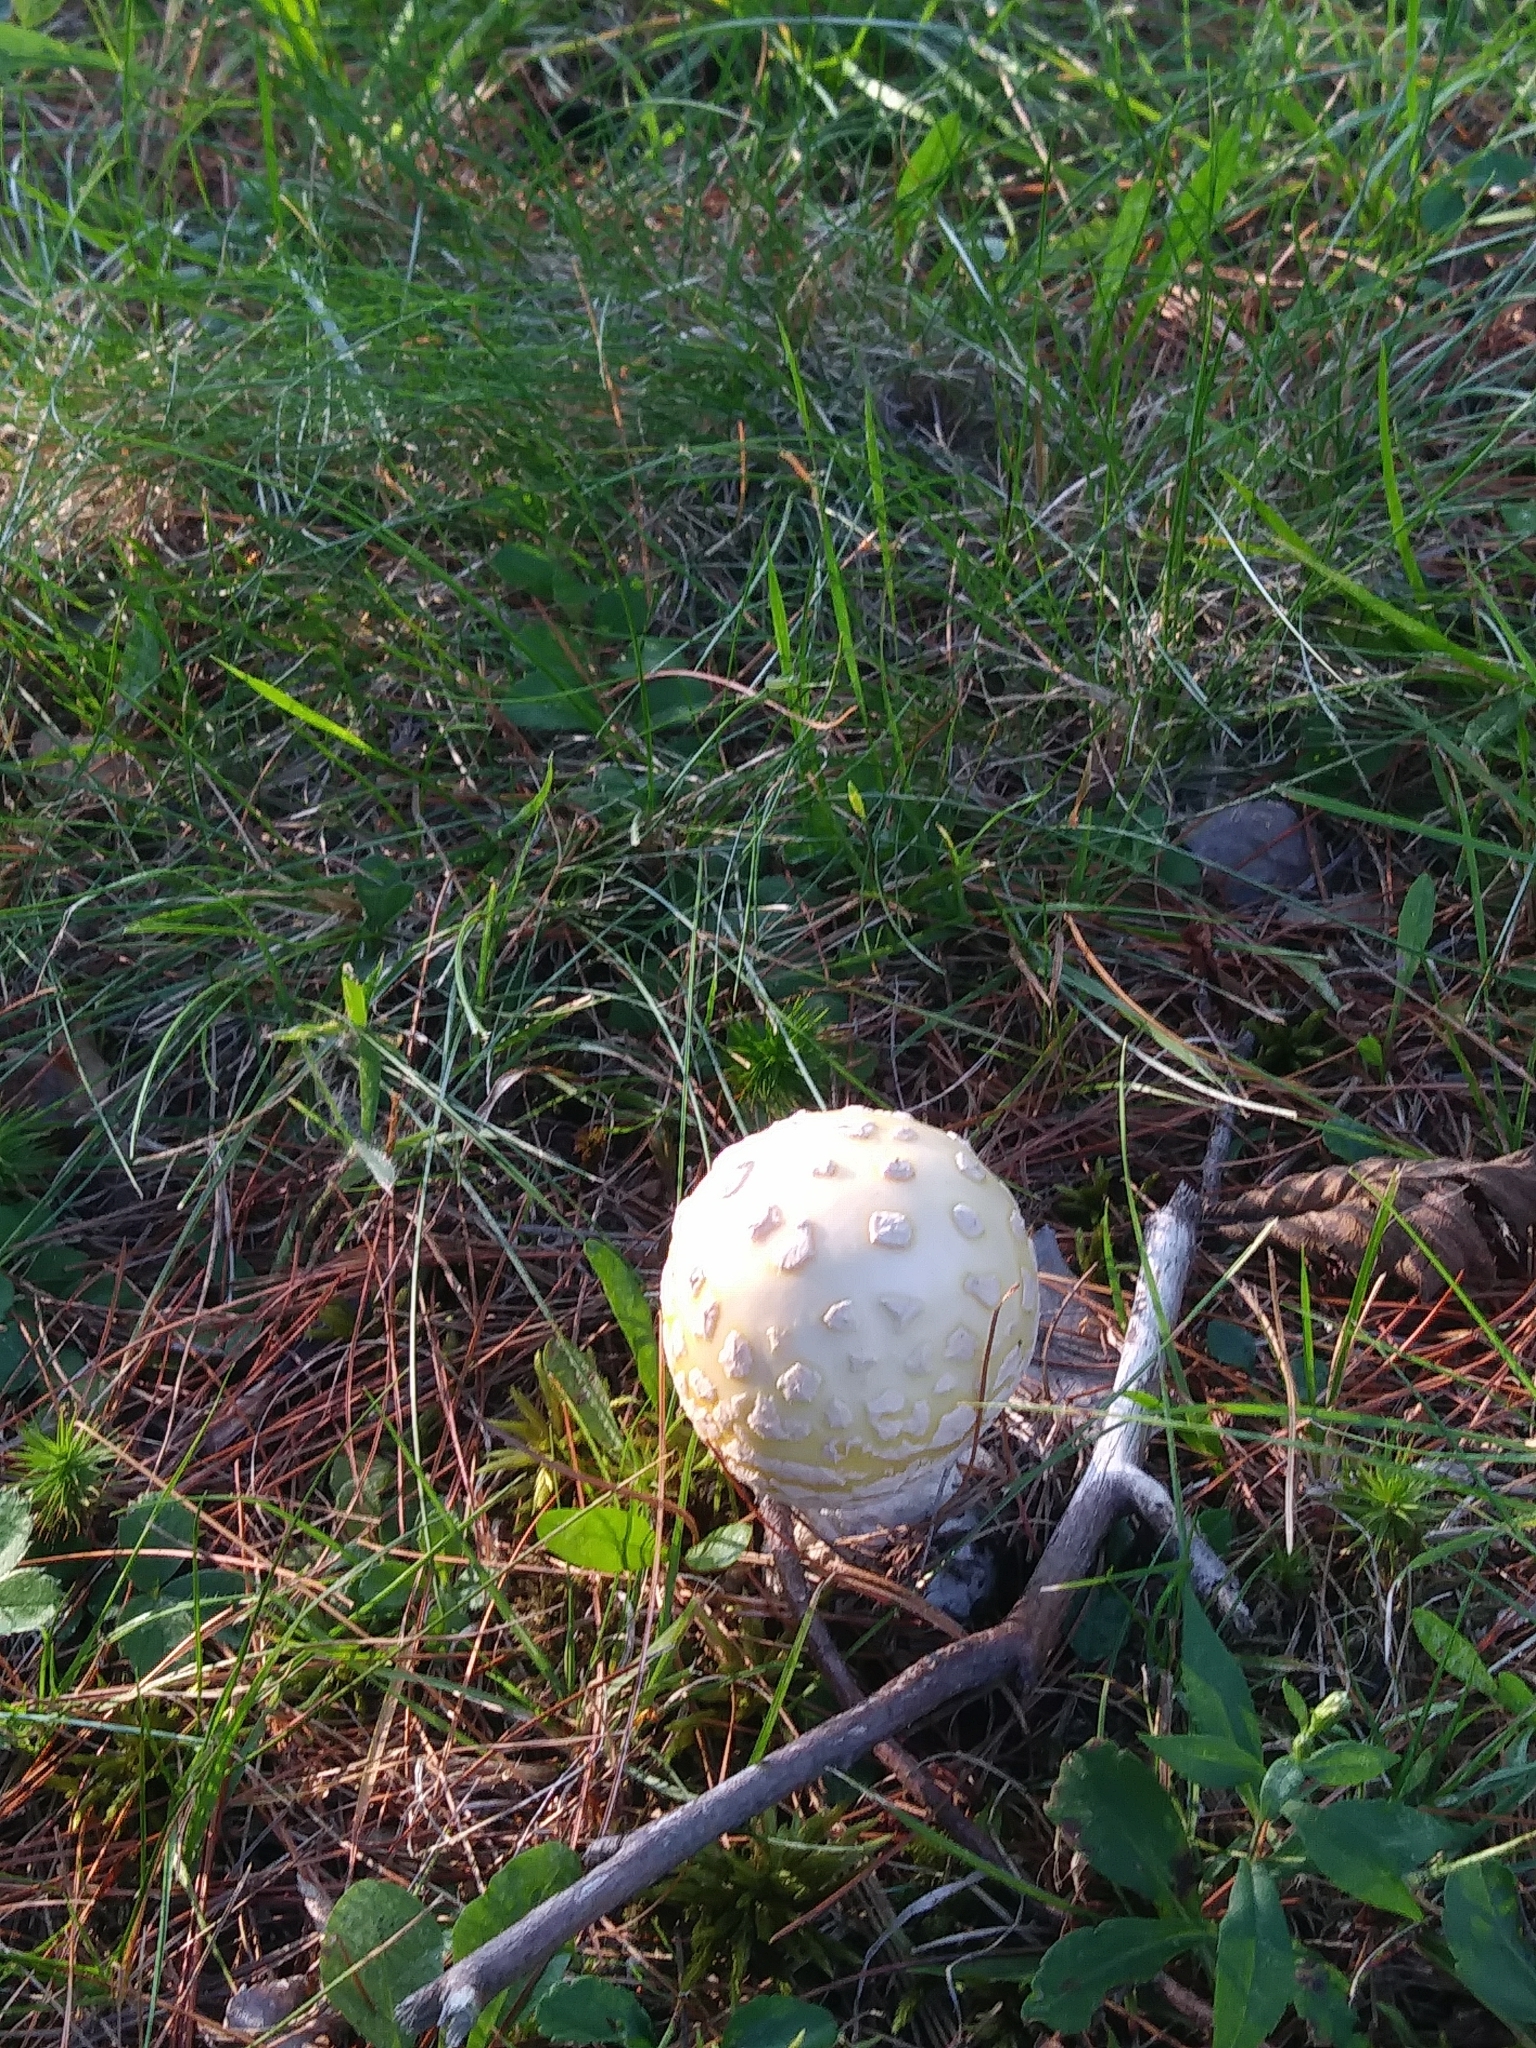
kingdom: Fungi
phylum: Basidiomycota
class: Agaricomycetes
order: Agaricales
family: Amanitaceae
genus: Amanita
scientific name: Amanita muscaria
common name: Fly agaric
